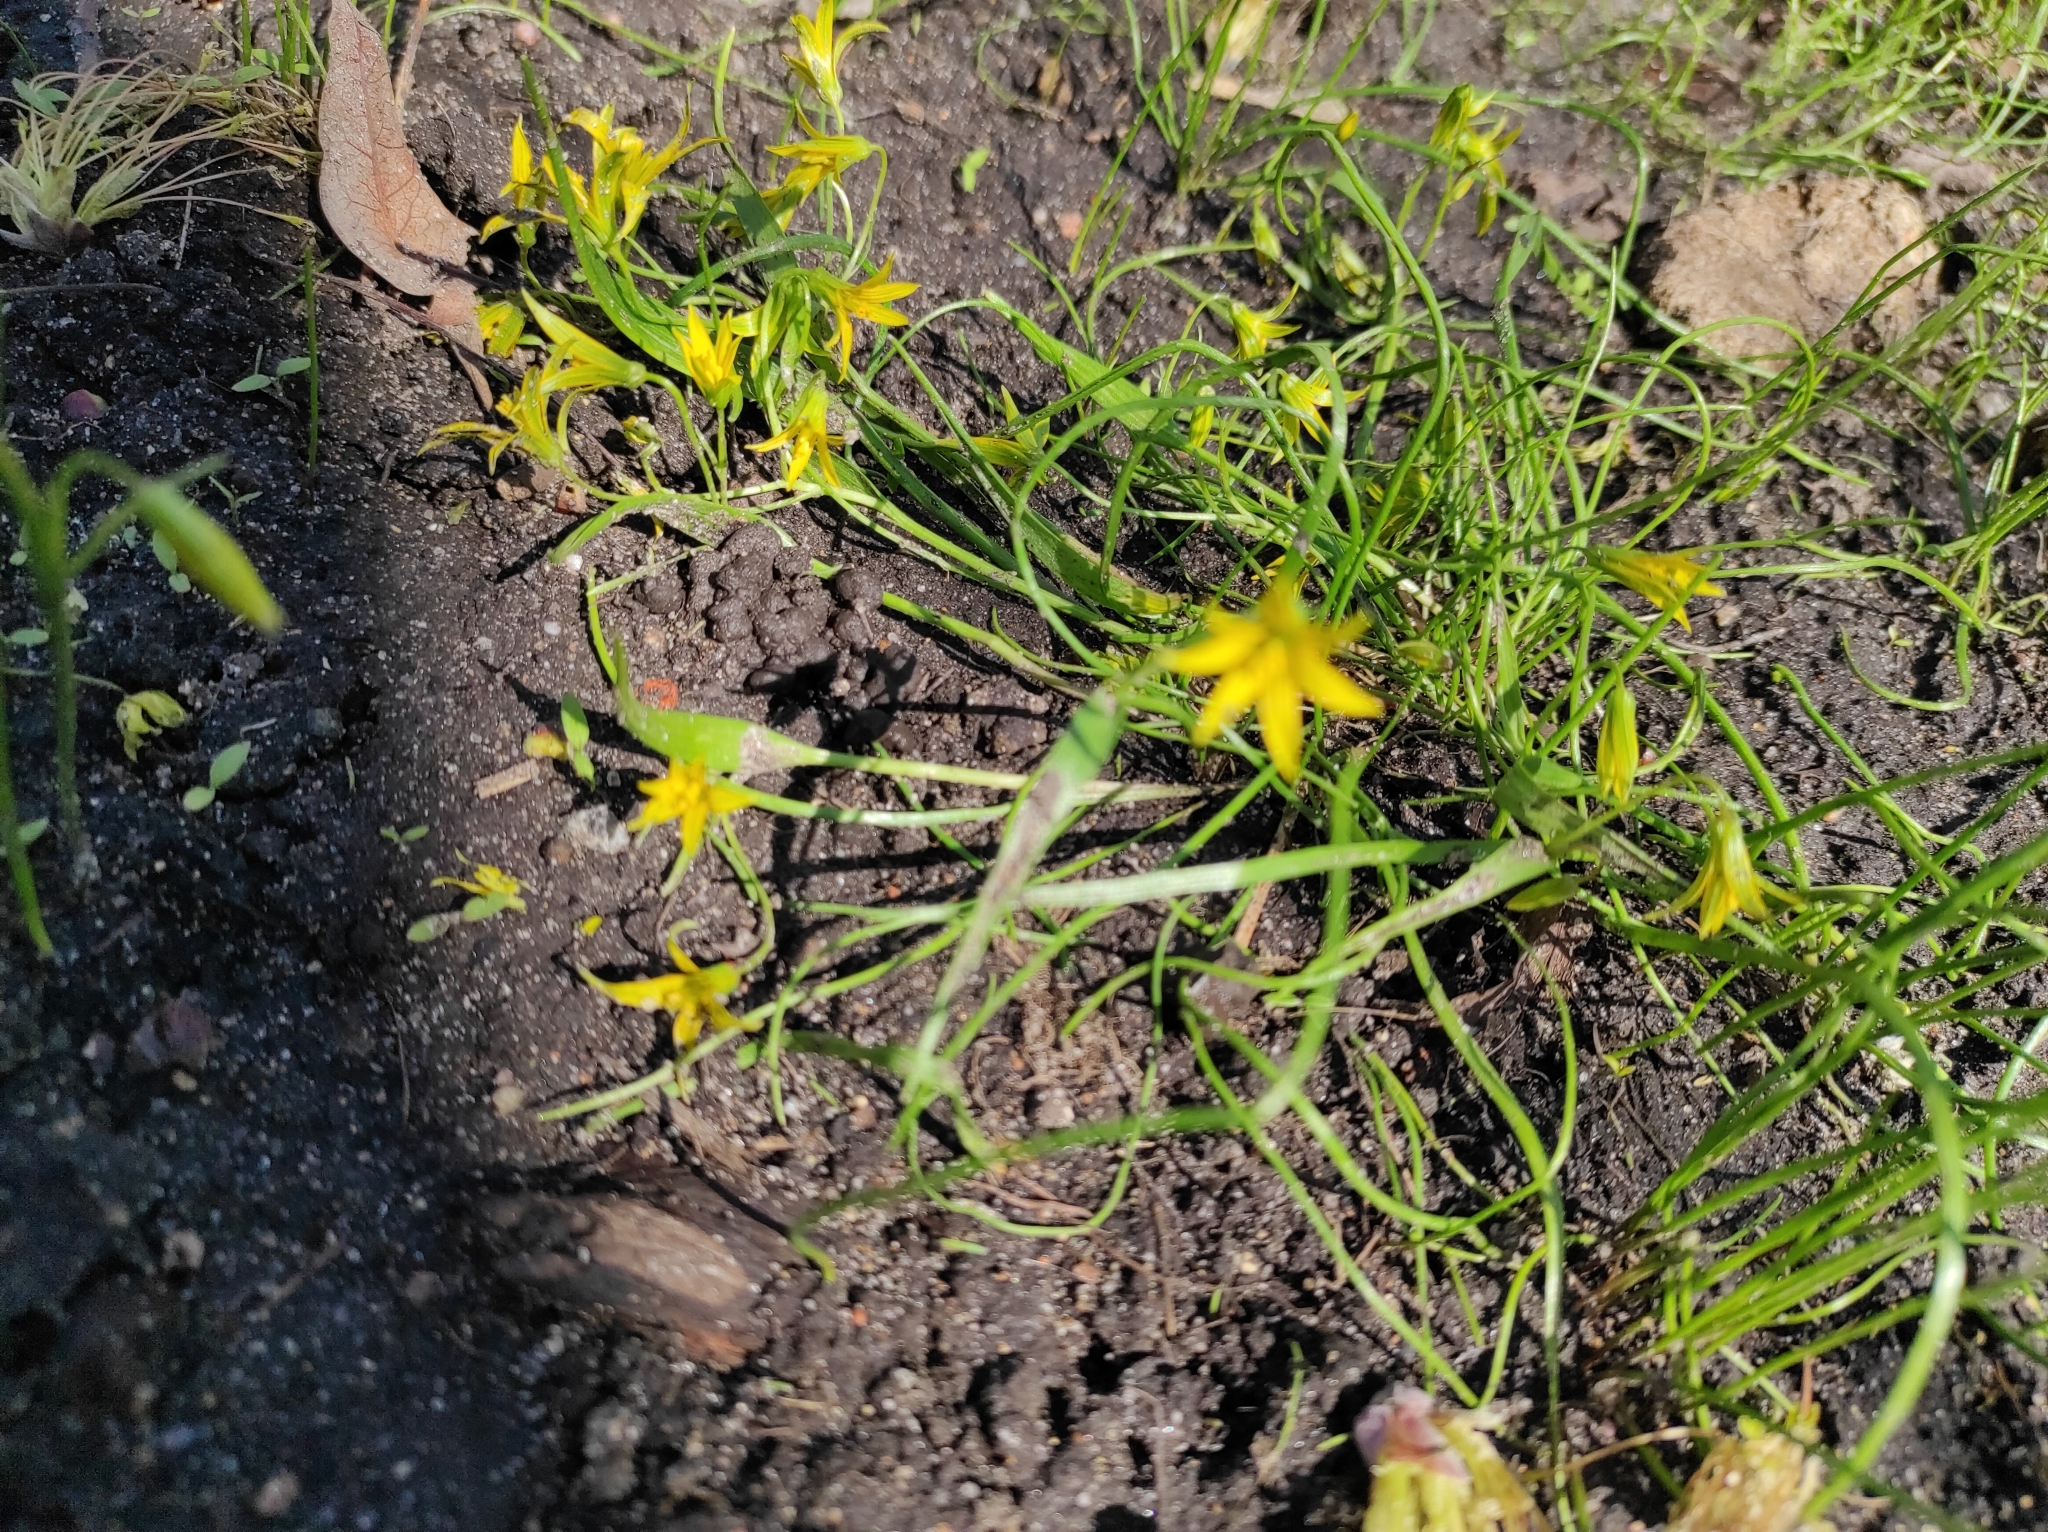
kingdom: Plantae
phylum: Tracheophyta
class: Liliopsida
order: Liliales
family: Liliaceae
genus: Gagea
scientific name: Gagea minima
